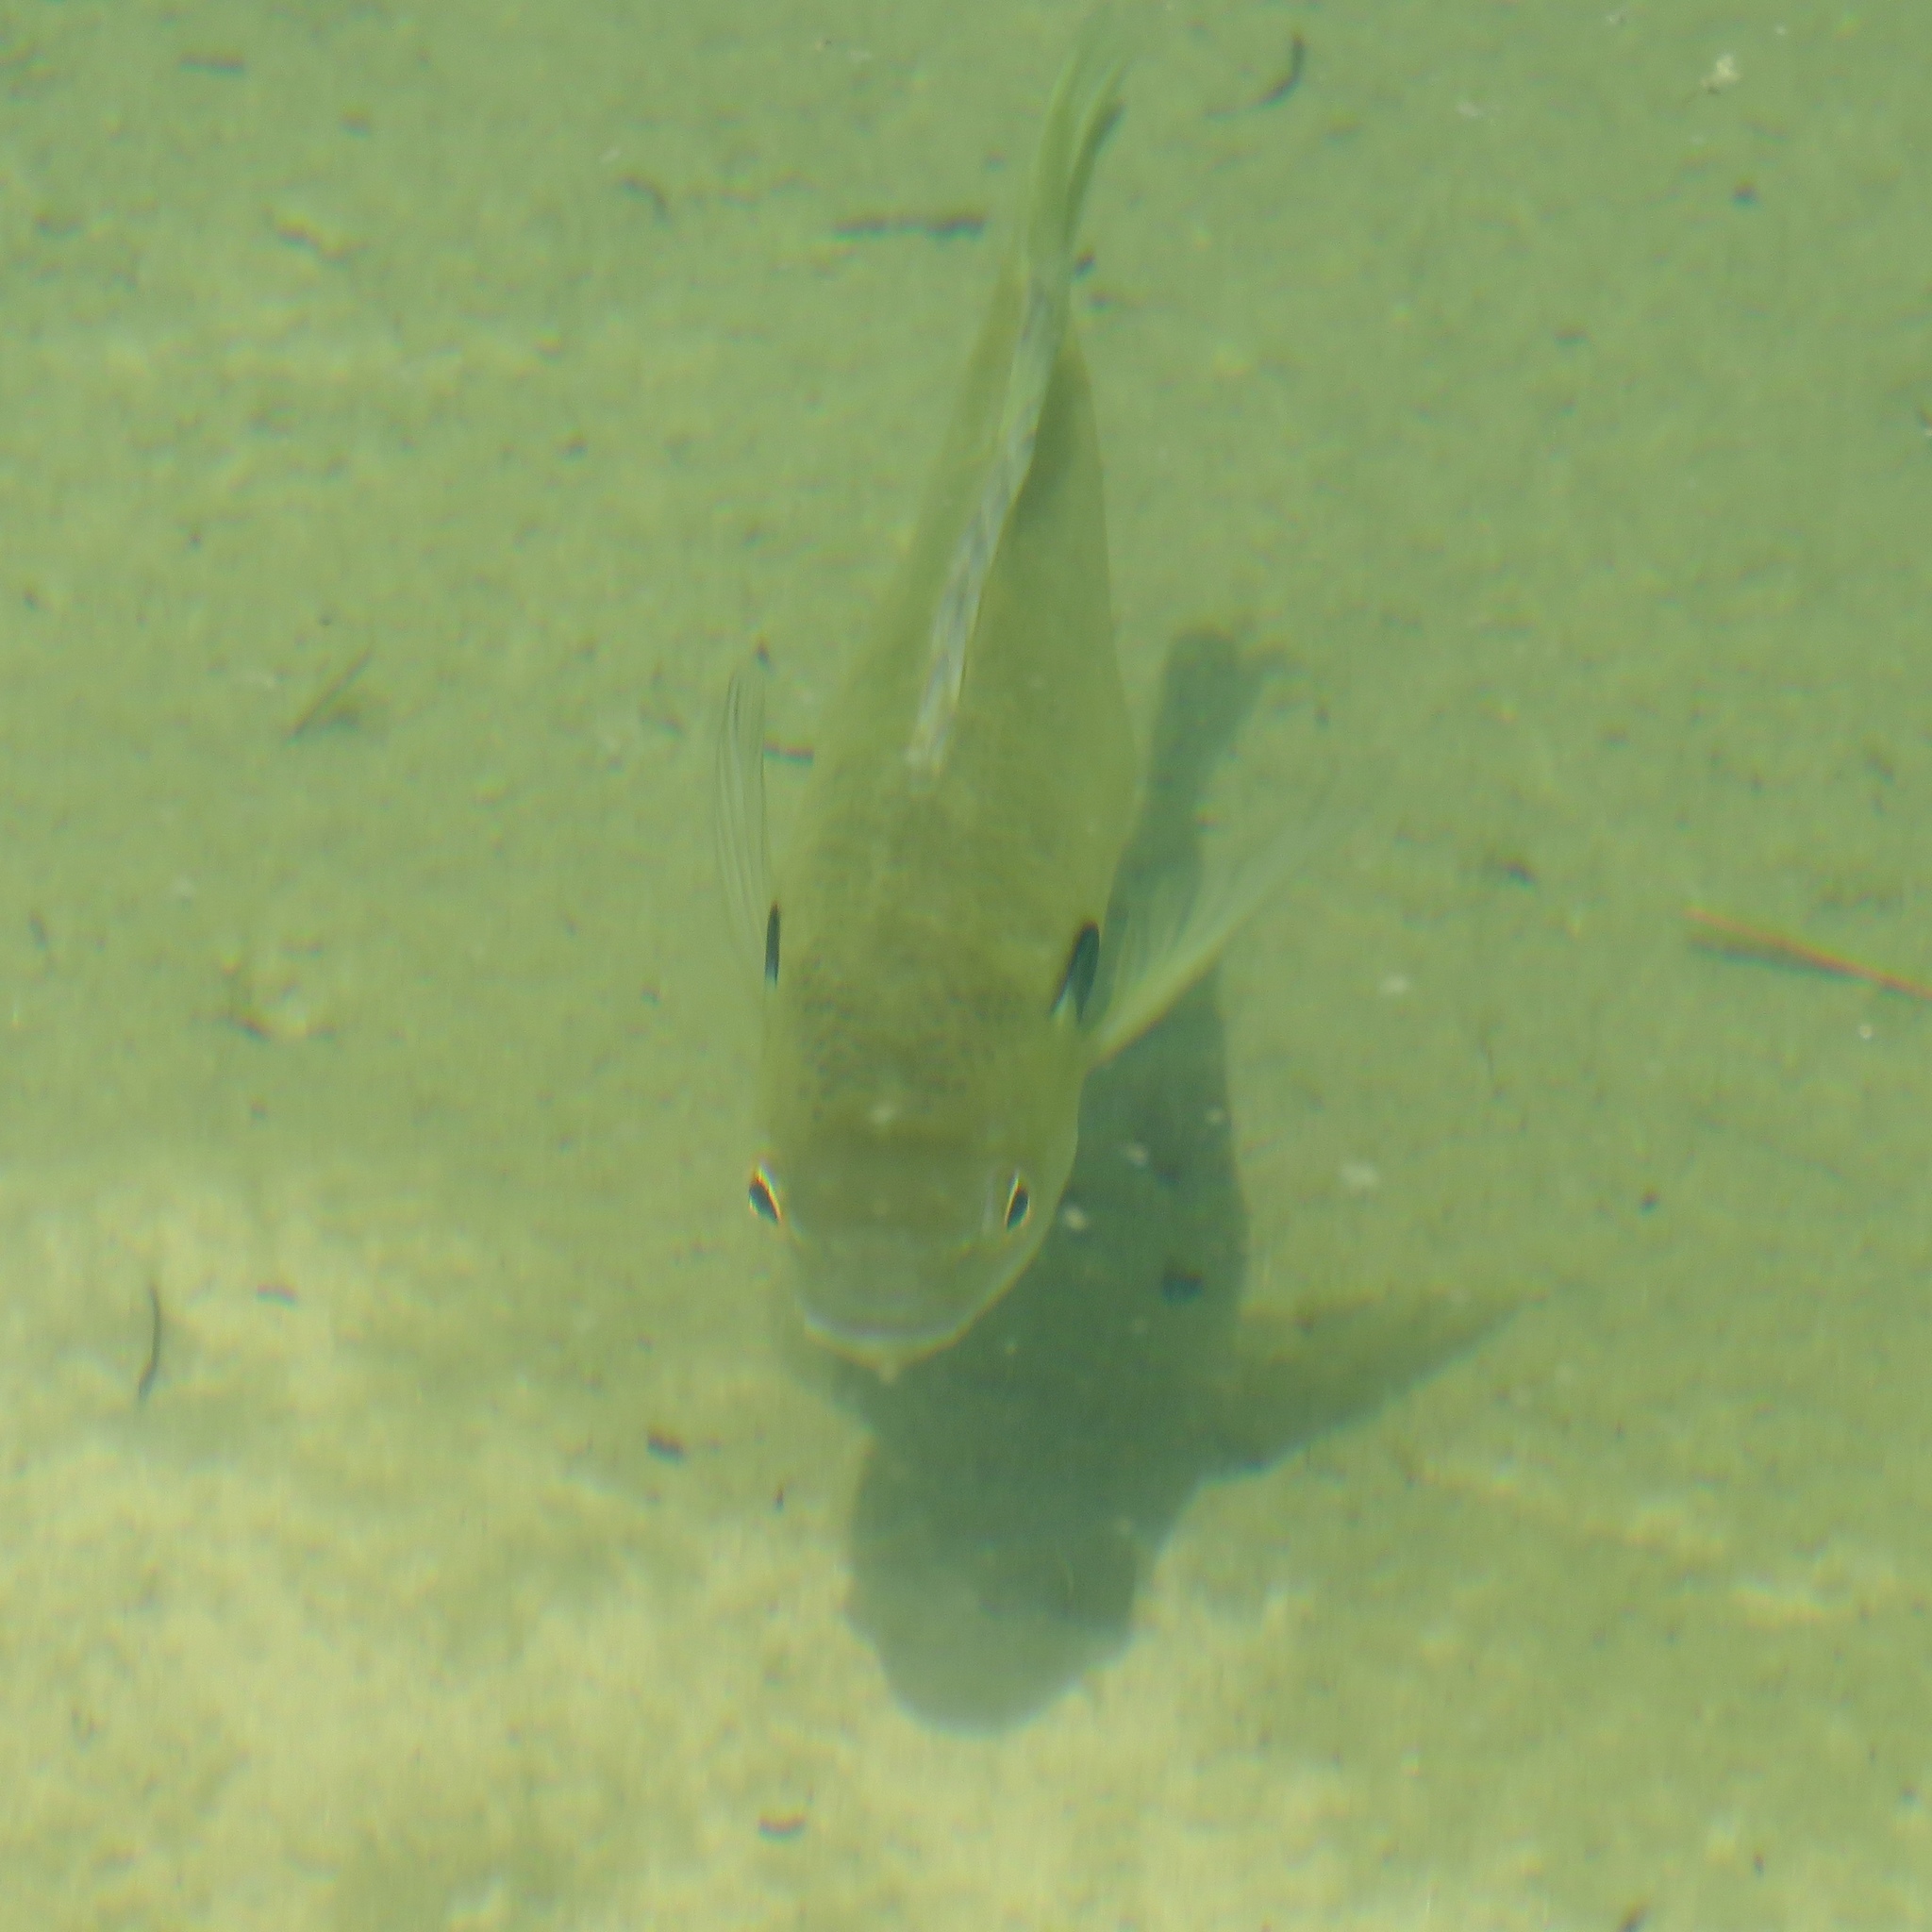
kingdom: Animalia
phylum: Chordata
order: Perciformes
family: Centrarchidae
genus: Lepomis
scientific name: Lepomis macrochirus
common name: Bluegill
